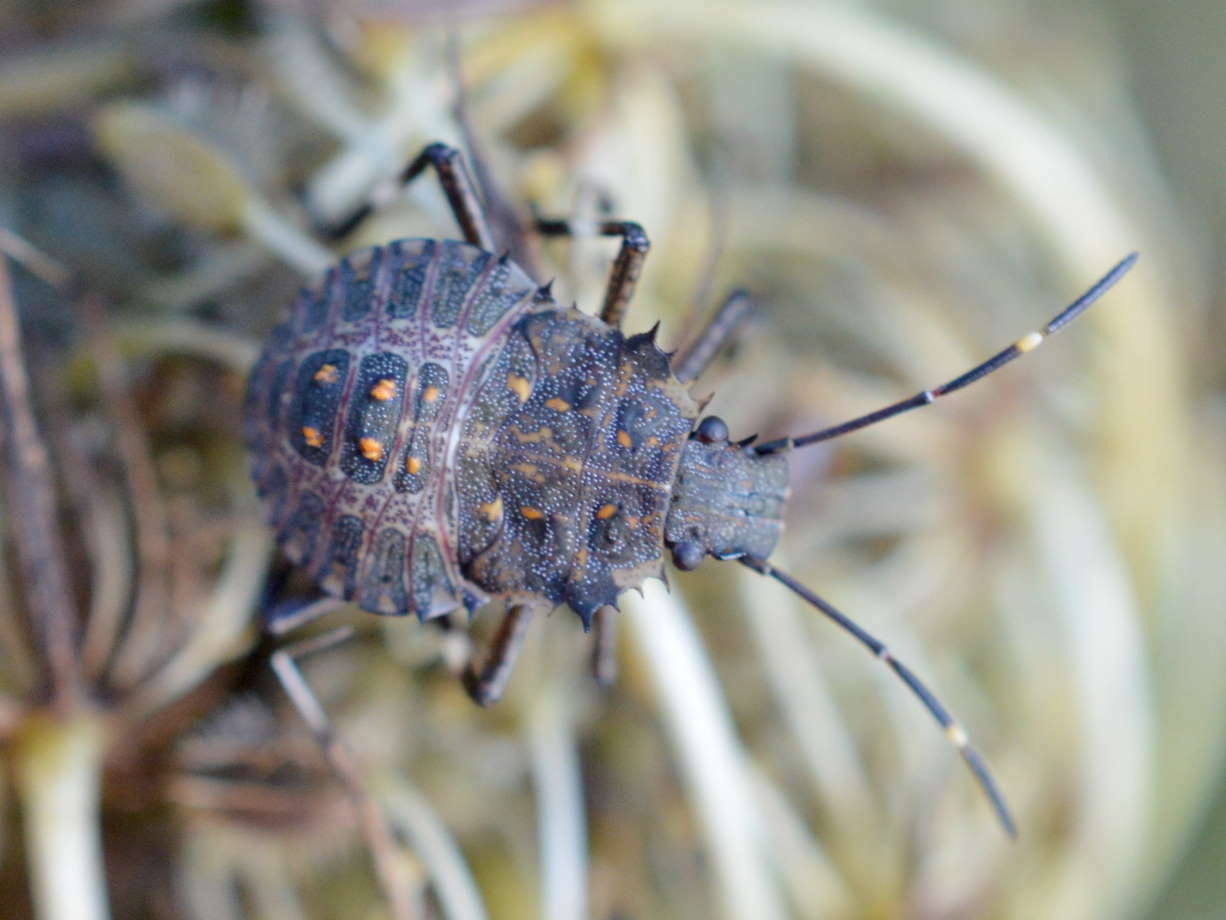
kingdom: Animalia
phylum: Arthropoda
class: Insecta
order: Hemiptera
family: Pentatomidae
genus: Halyomorpha
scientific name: Halyomorpha halys
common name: Brown marmorated stink bug
